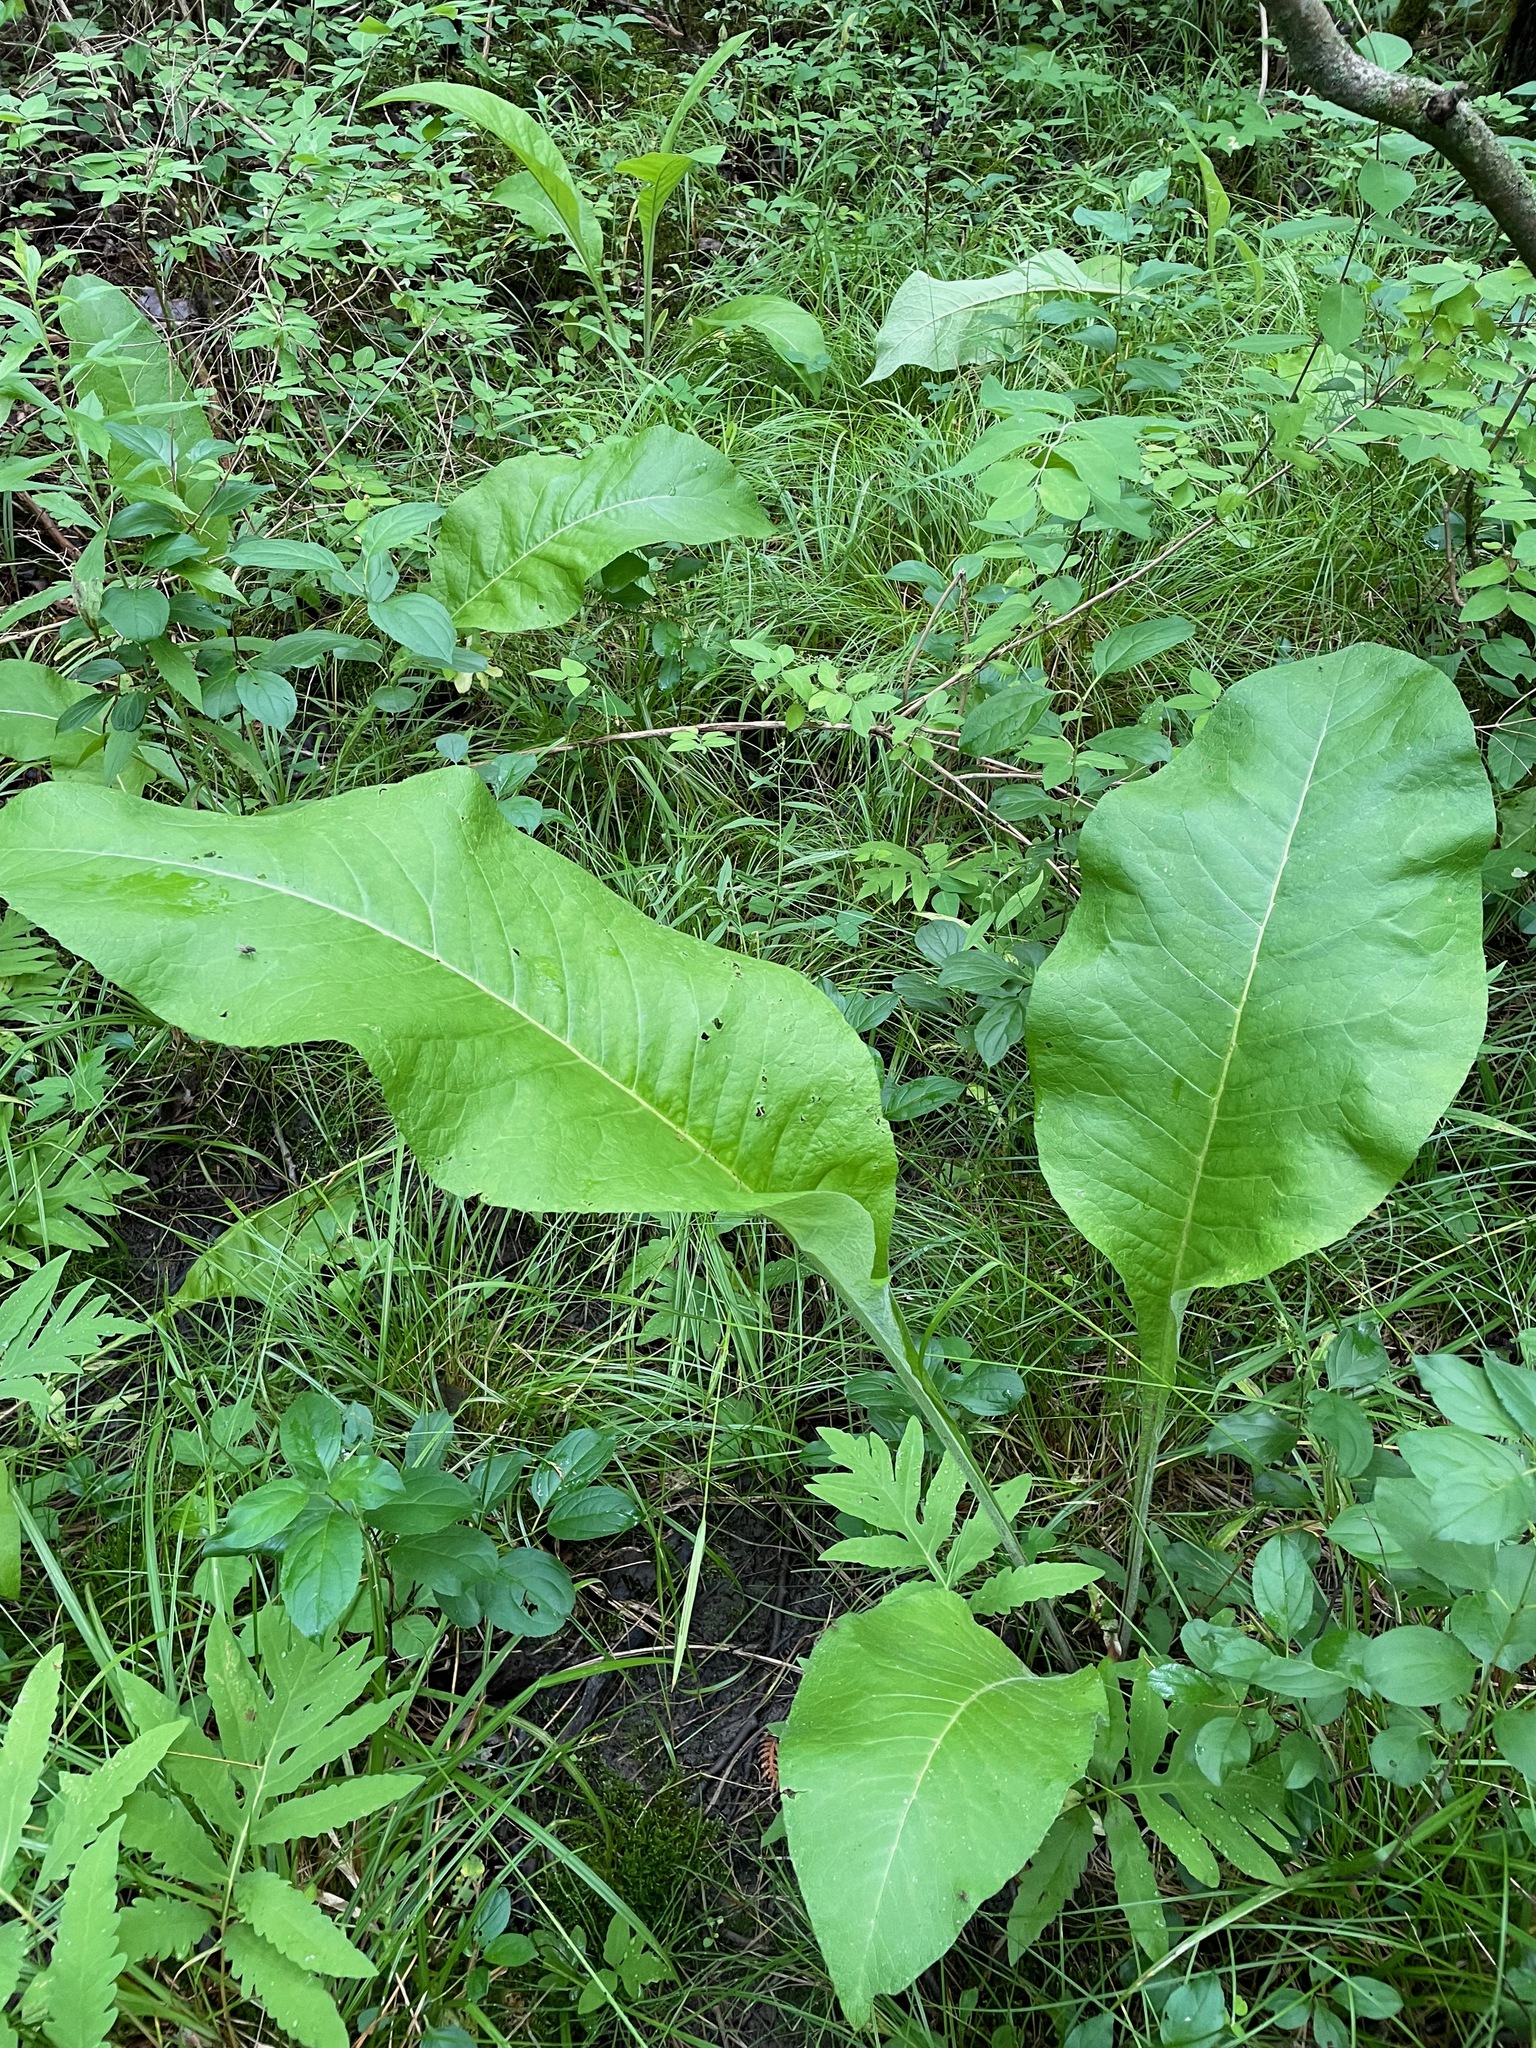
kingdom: Plantae
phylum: Tracheophyta
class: Magnoliopsida
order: Asterales
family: Asteraceae
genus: Inula
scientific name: Inula helenium
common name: Elecampane
